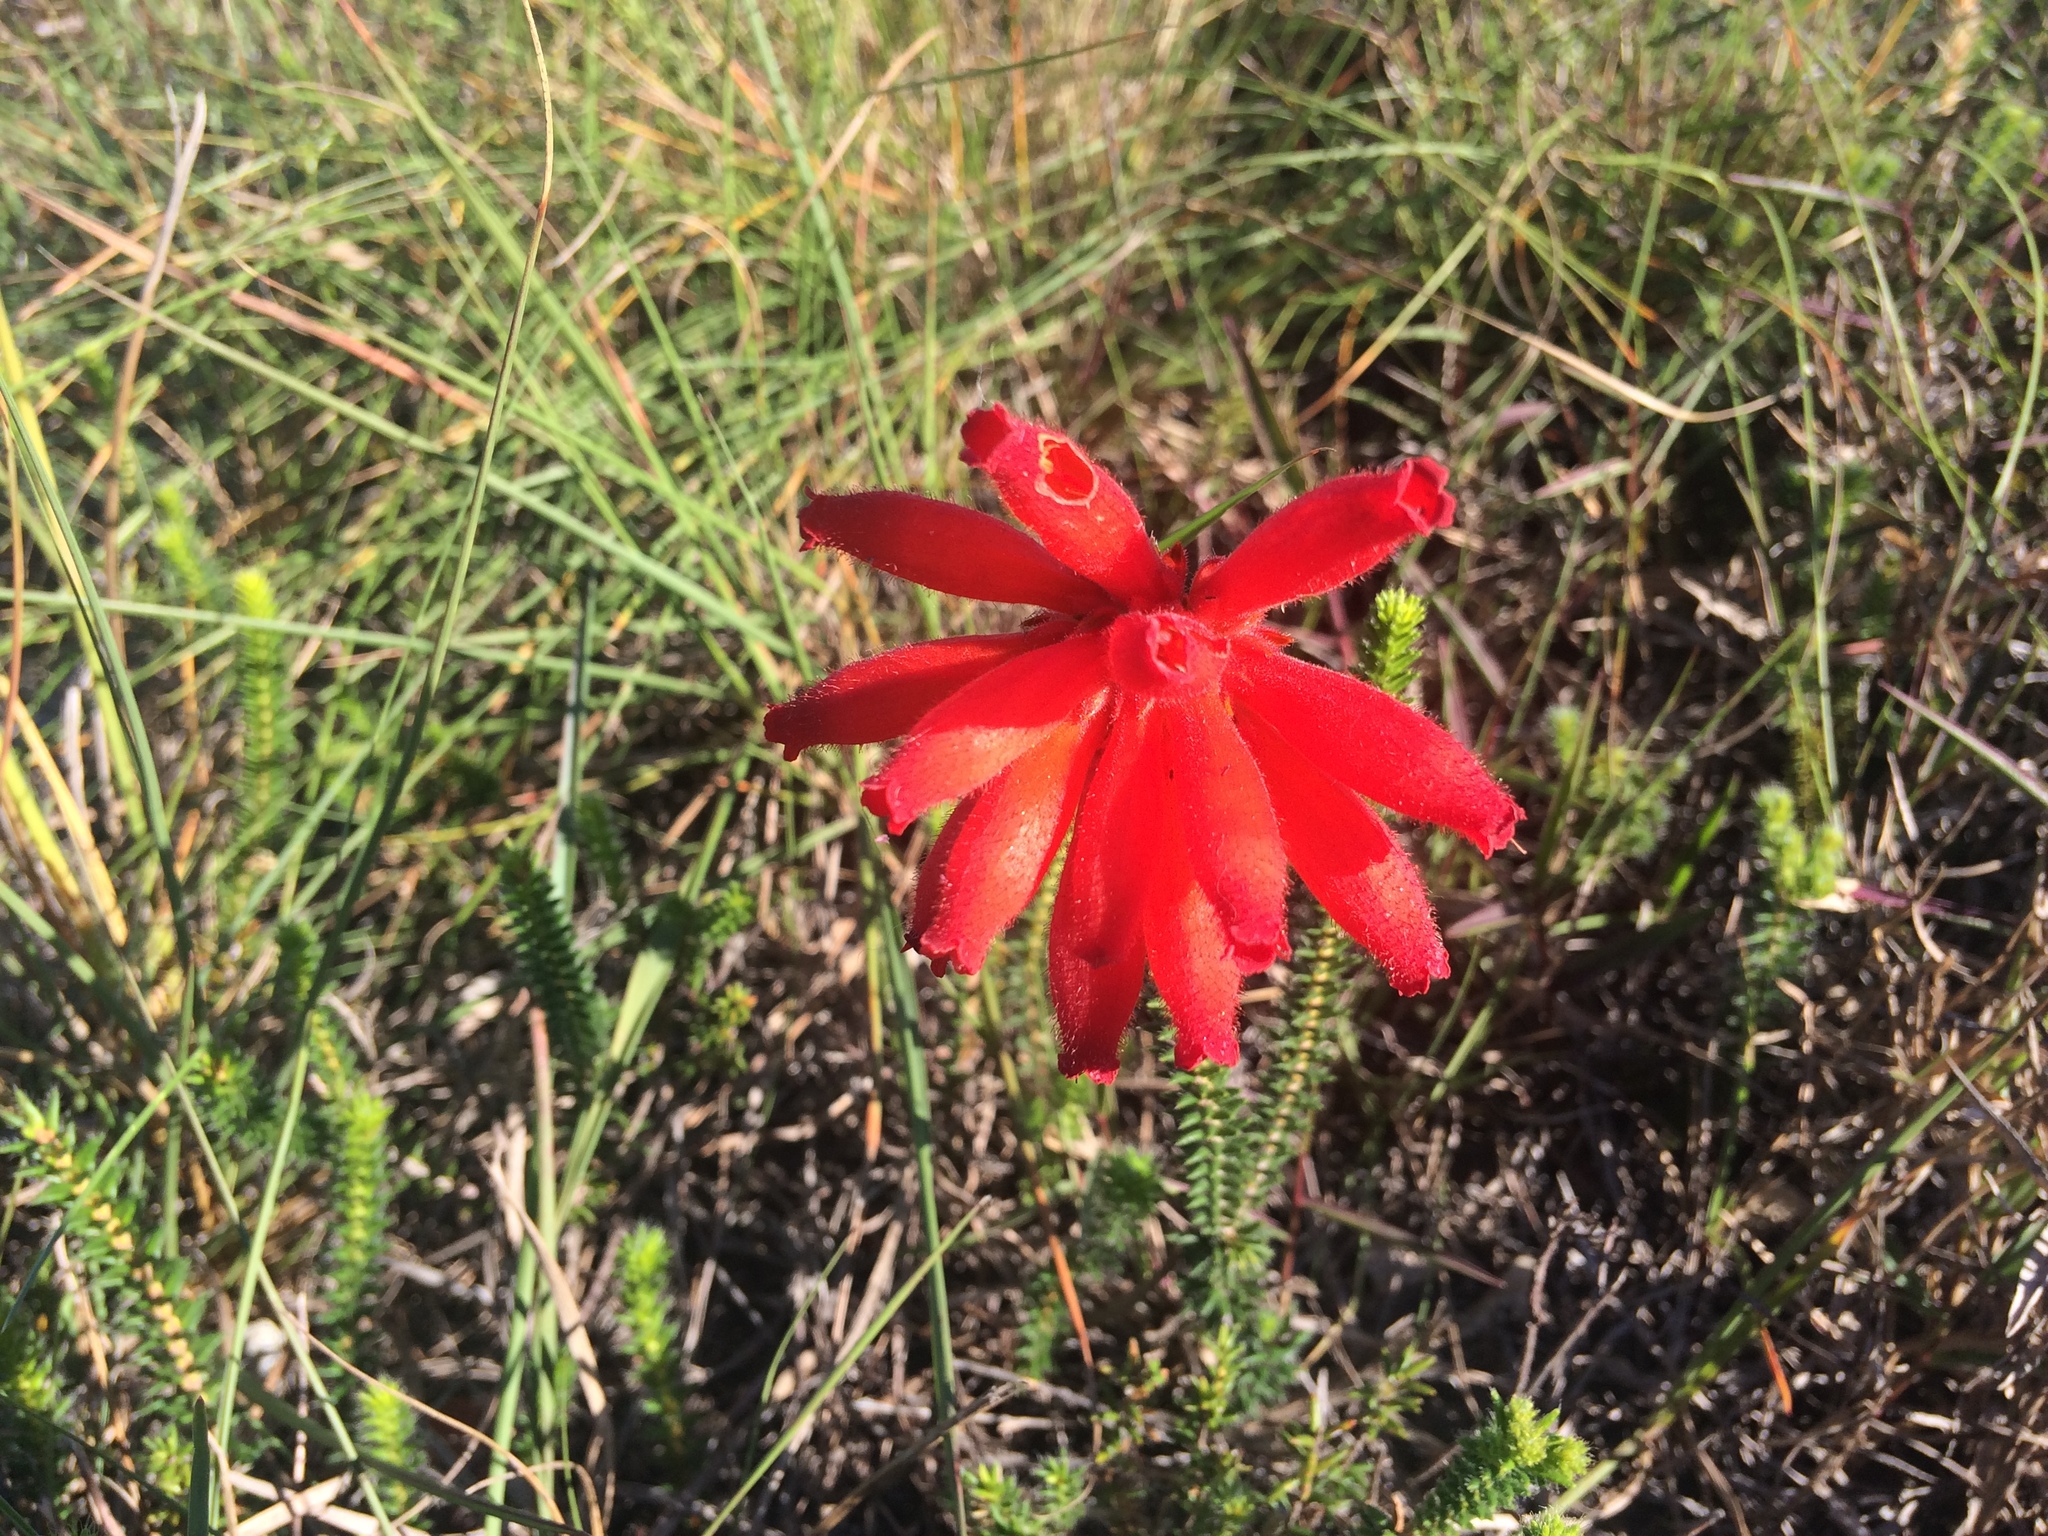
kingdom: Plantae
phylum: Tracheophyta
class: Magnoliopsida
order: Ericales
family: Ericaceae
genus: Erica
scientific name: Erica cerinthoides
